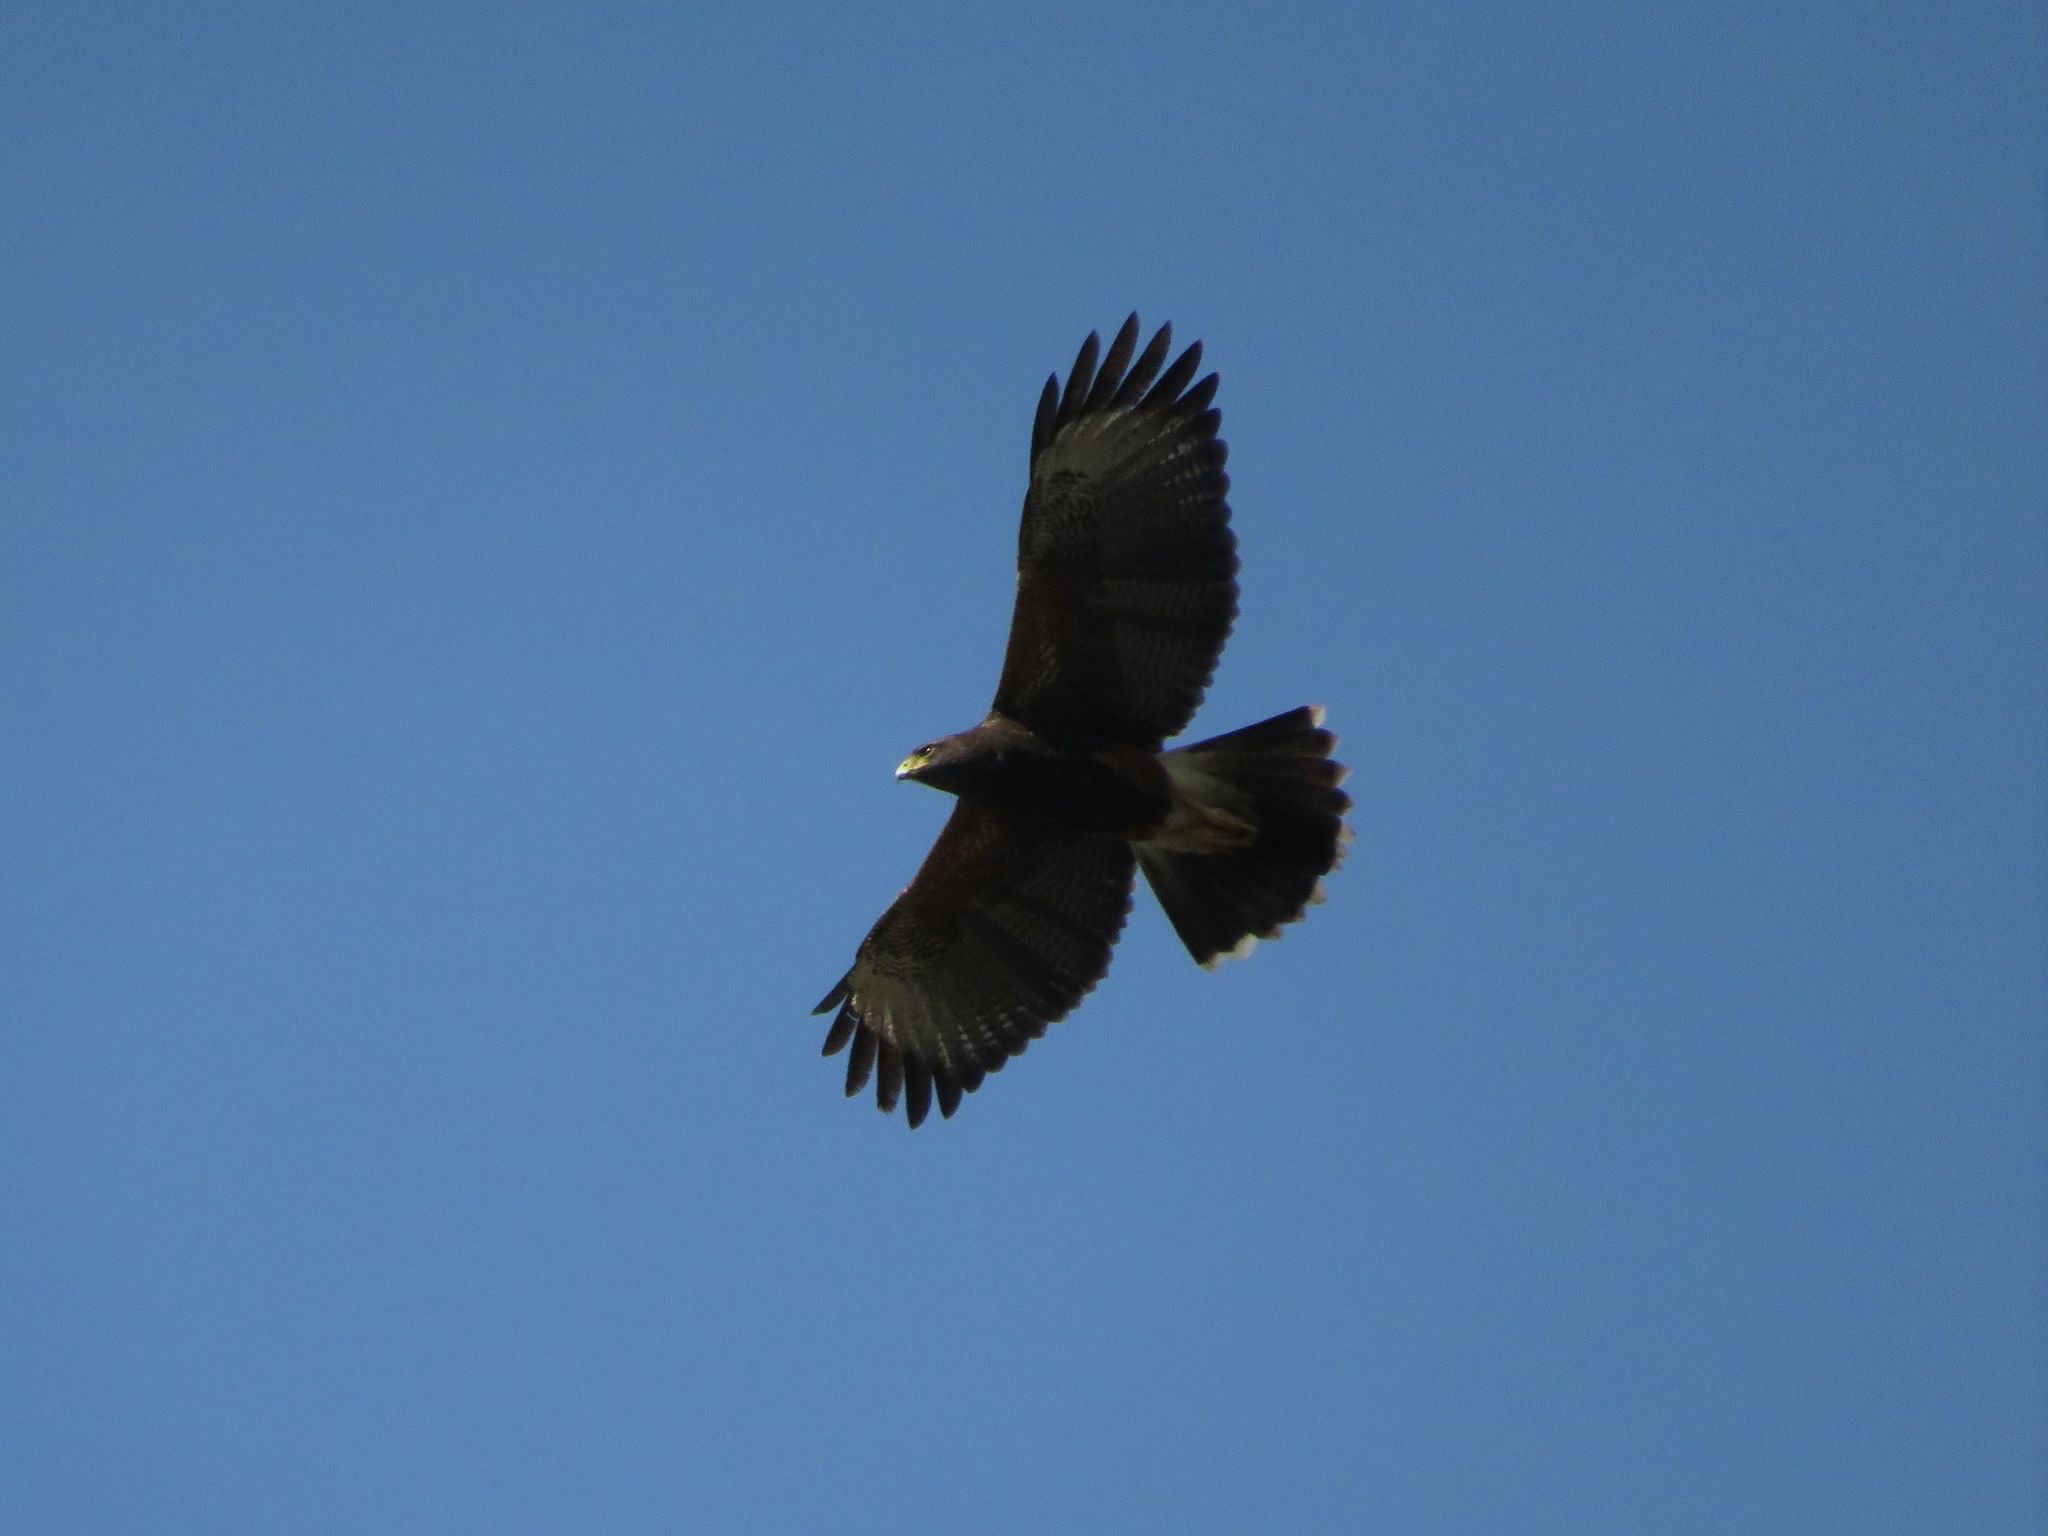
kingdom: Animalia
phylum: Chordata
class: Aves
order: Accipitriformes
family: Accipitridae
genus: Parabuteo
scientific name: Parabuteo unicinctus
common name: Harris's hawk
